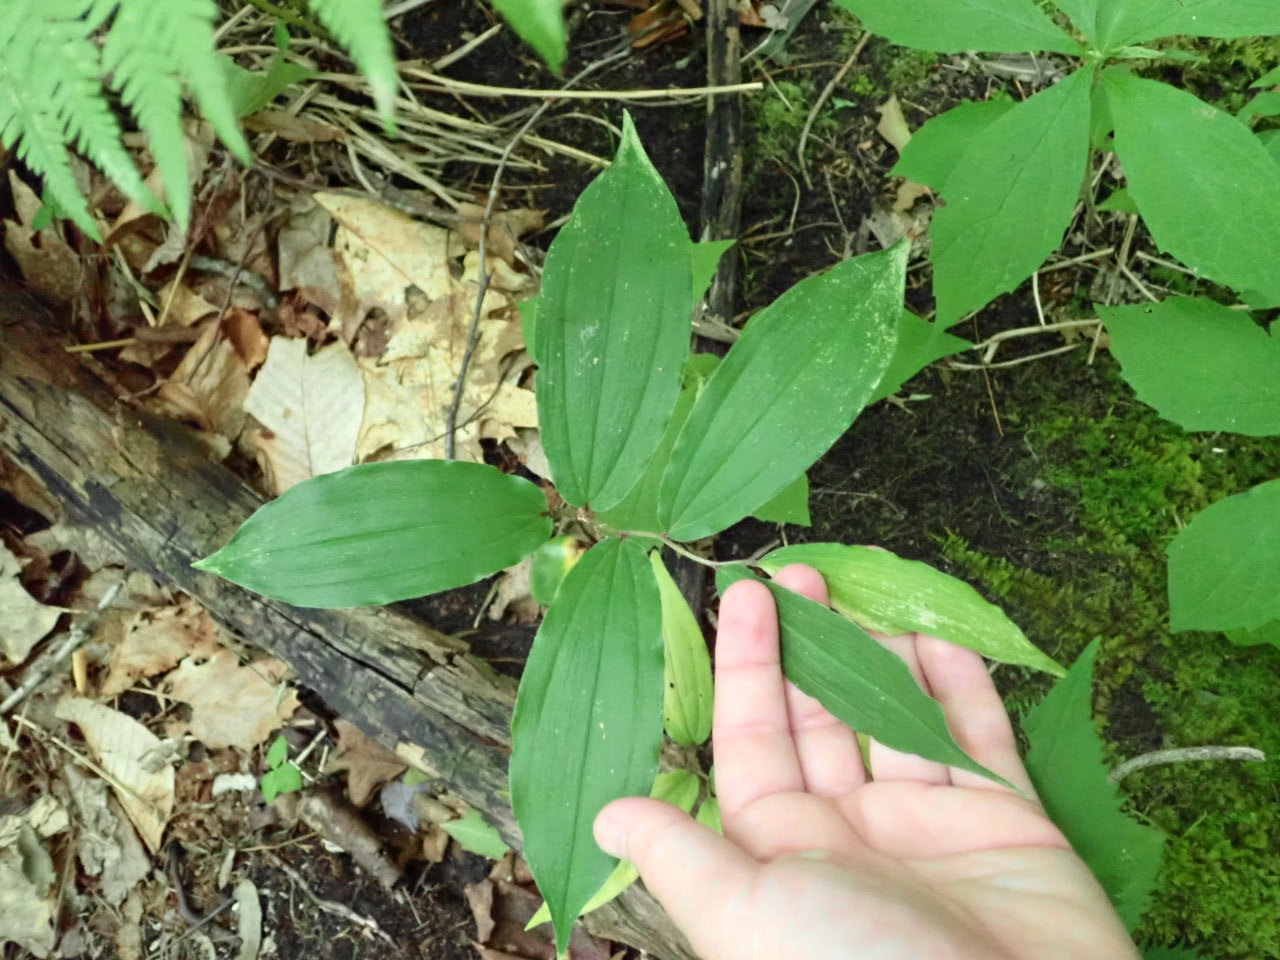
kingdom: Plantae
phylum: Tracheophyta
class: Liliopsida
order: Asparagales
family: Asparagaceae
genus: Maianthemum
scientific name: Maianthemum racemosum
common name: False spikenard
